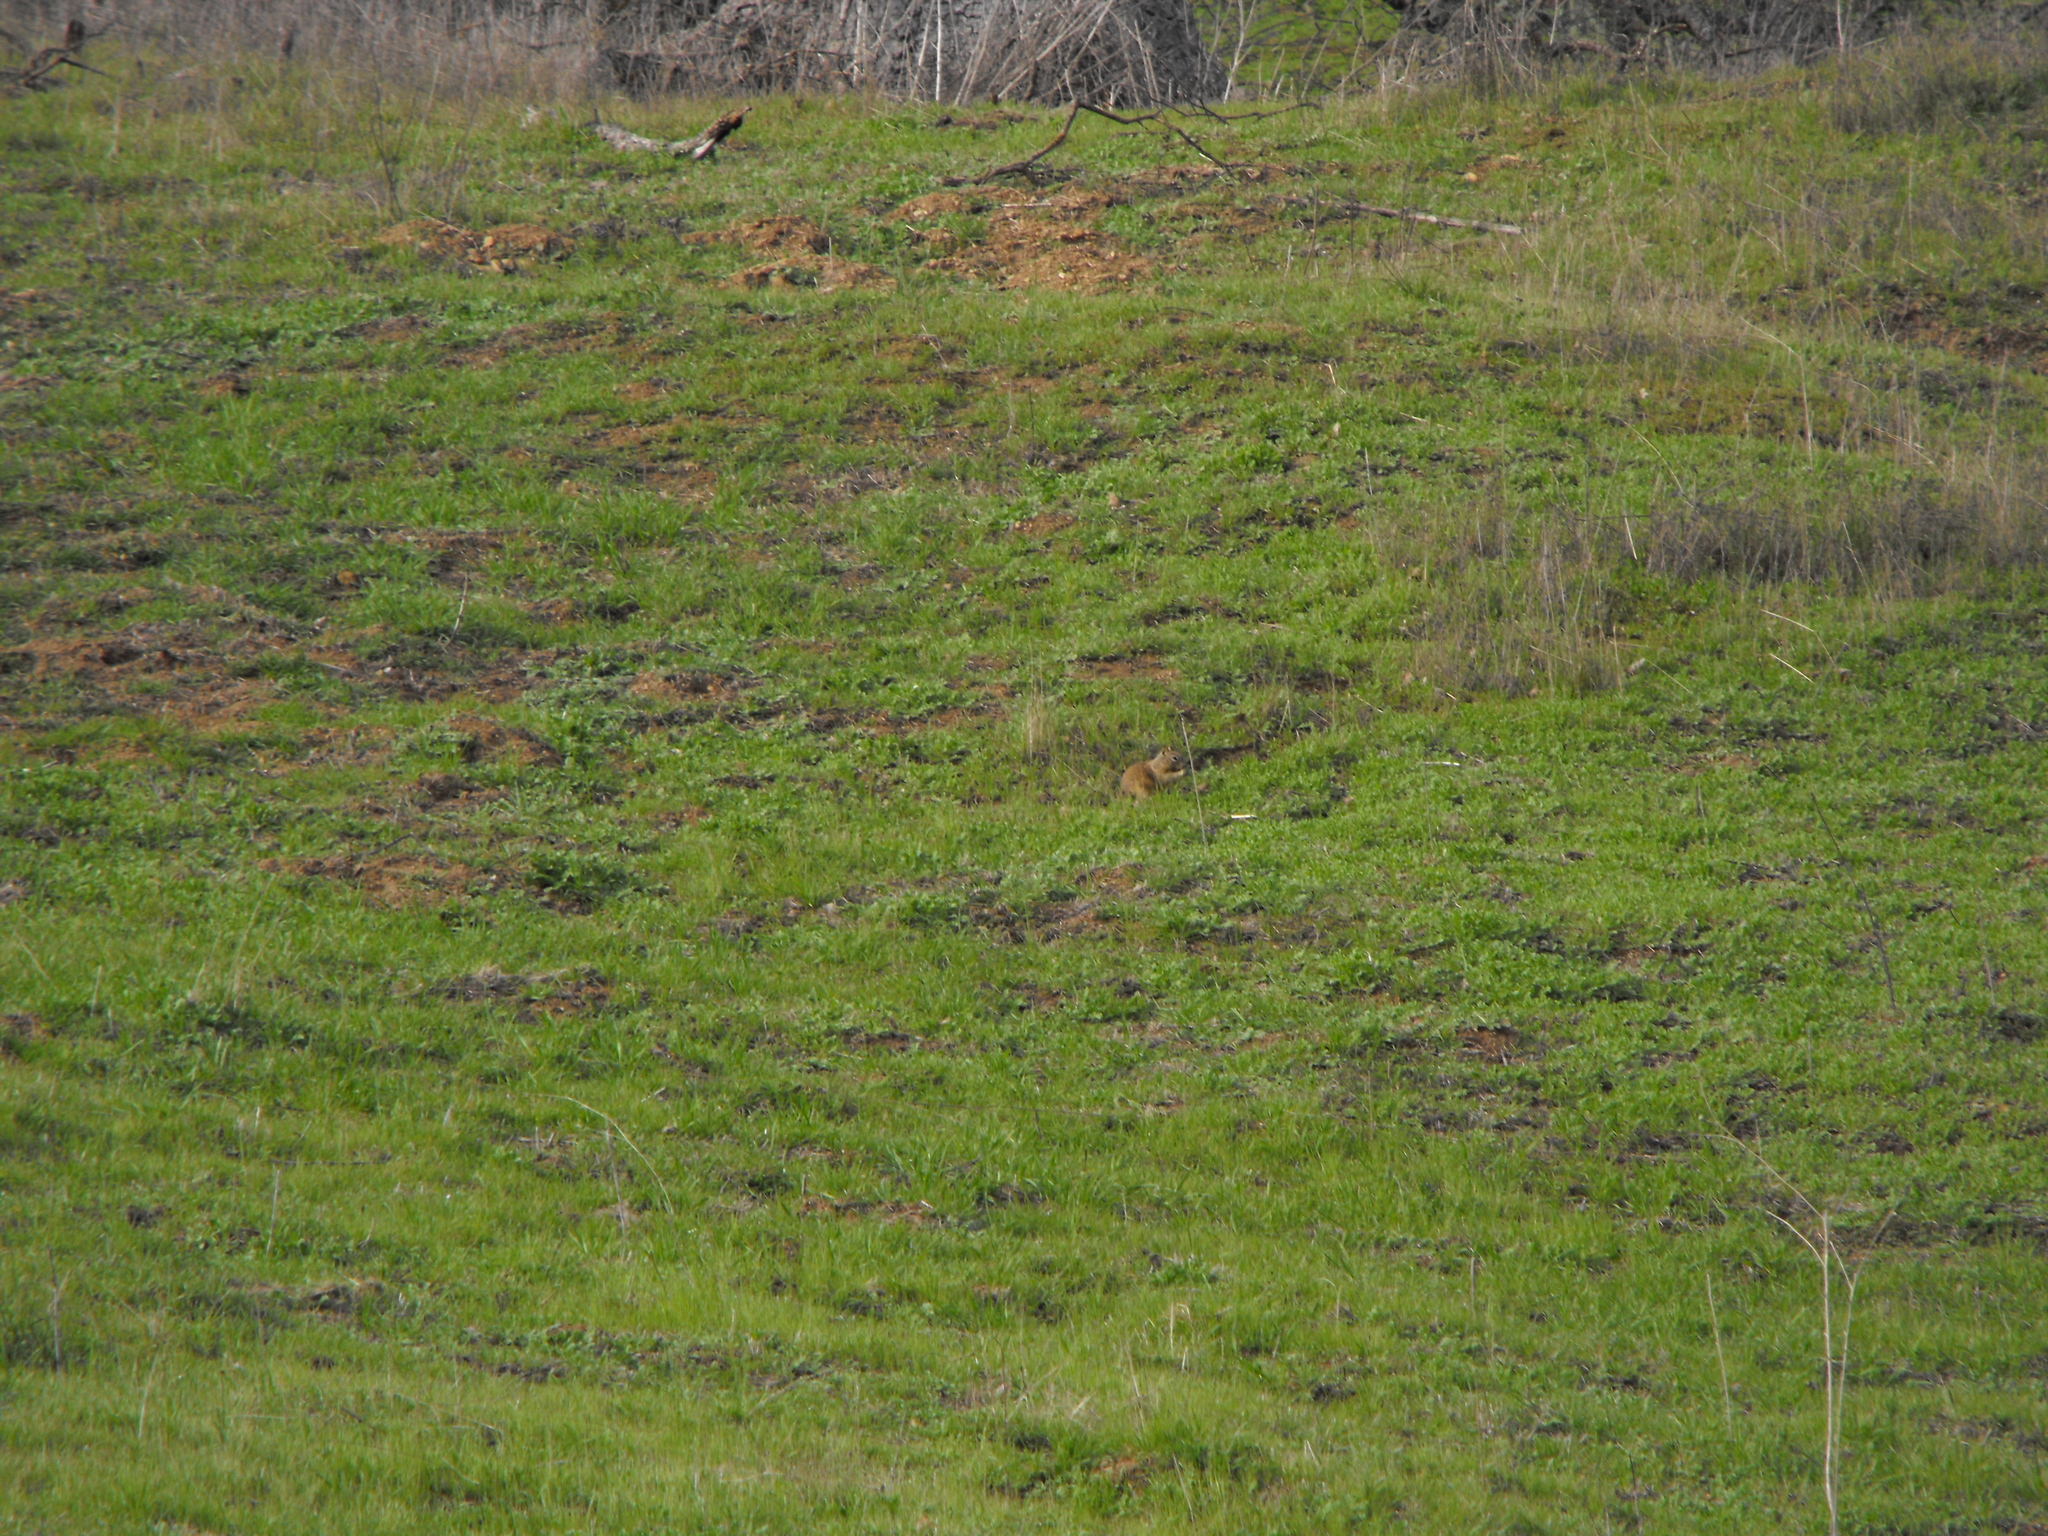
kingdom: Animalia
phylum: Chordata
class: Mammalia
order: Rodentia
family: Sciuridae
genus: Otospermophilus
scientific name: Otospermophilus beecheyi
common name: California ground squirrel
